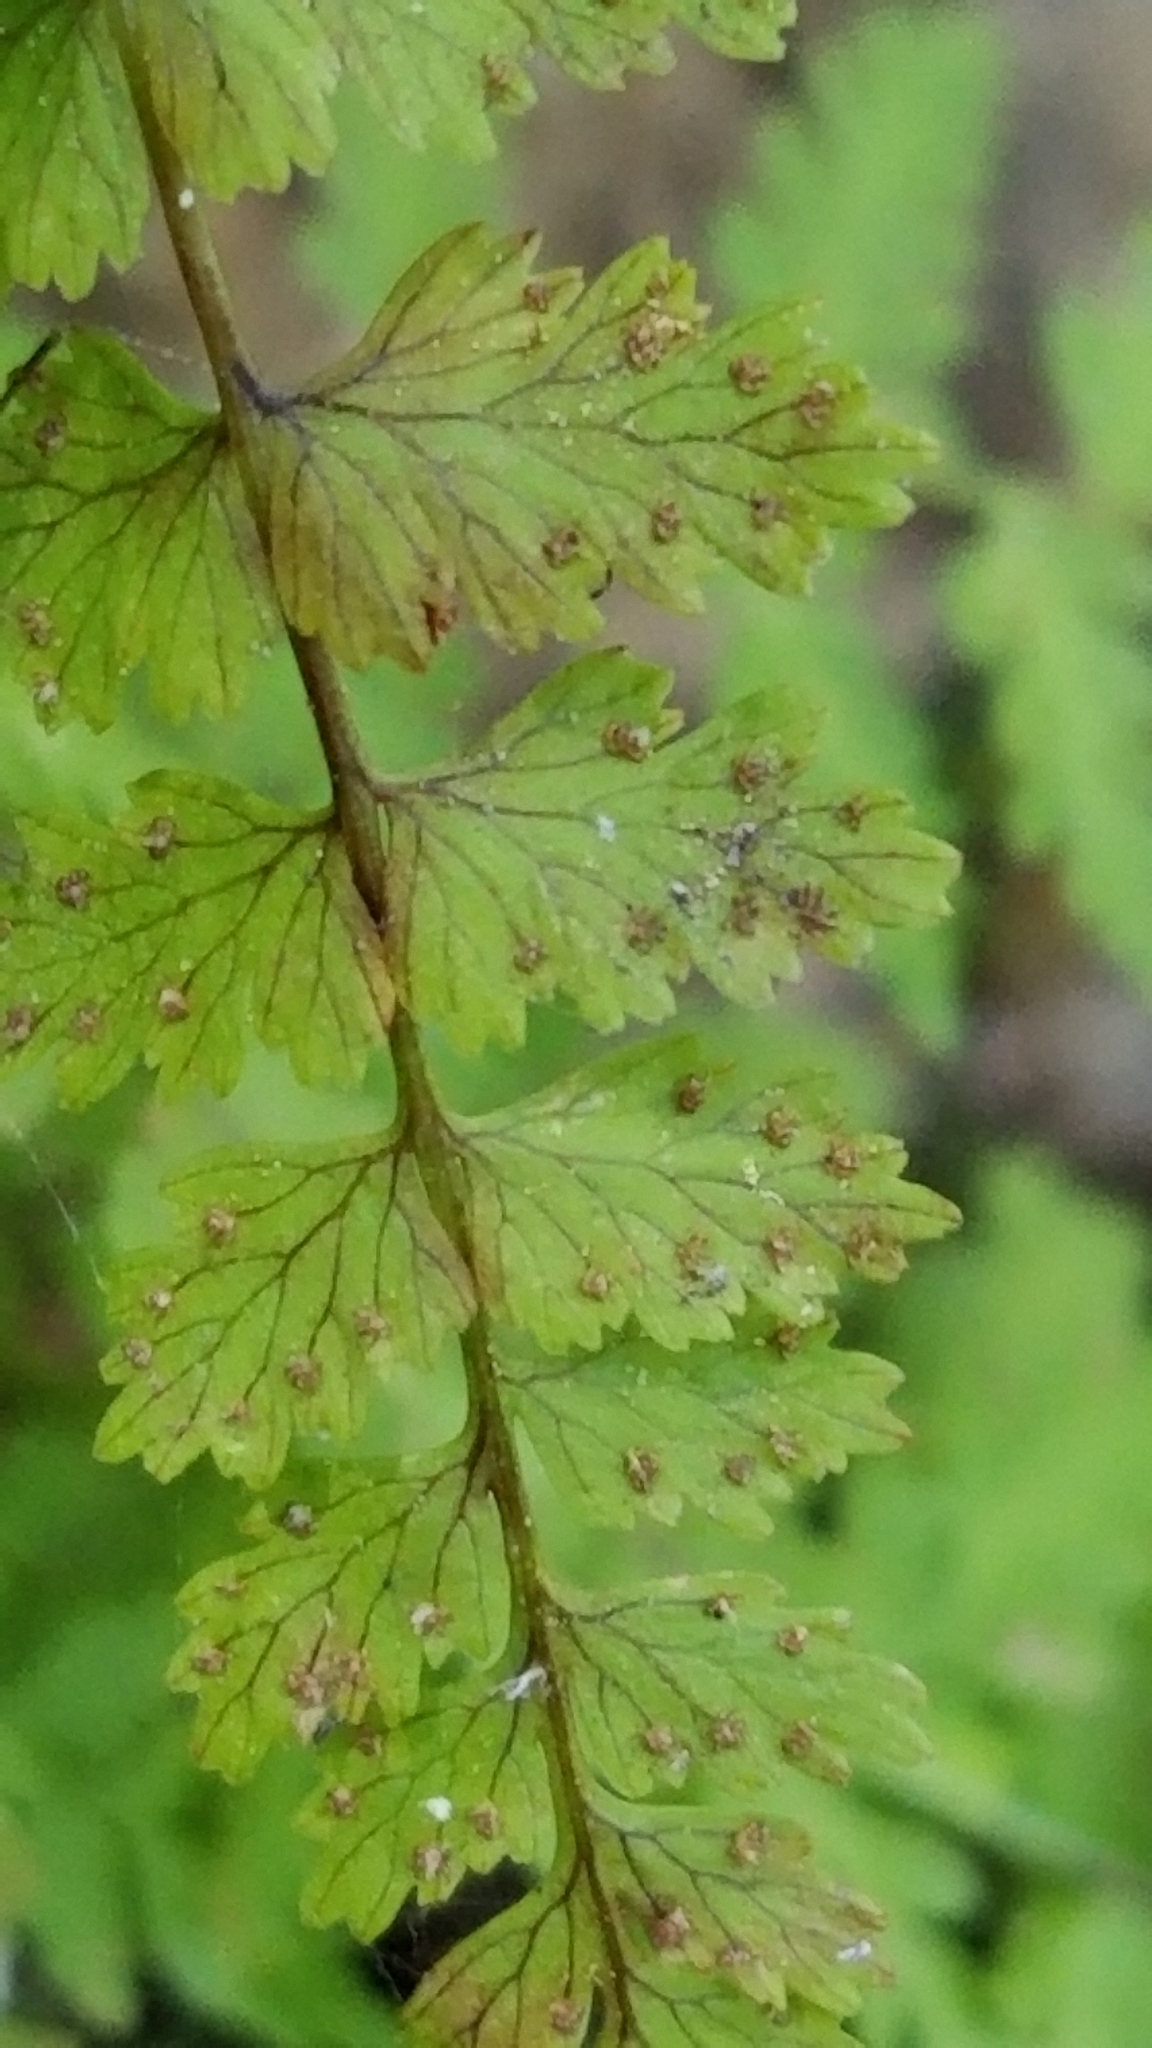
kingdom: Plantae
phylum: Tracheophyta
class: Polypodiopsida
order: Polypodiales
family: Cystopteridaceae
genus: Cystopteris
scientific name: Cystopteris fragilis
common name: Brittle bladder fern
